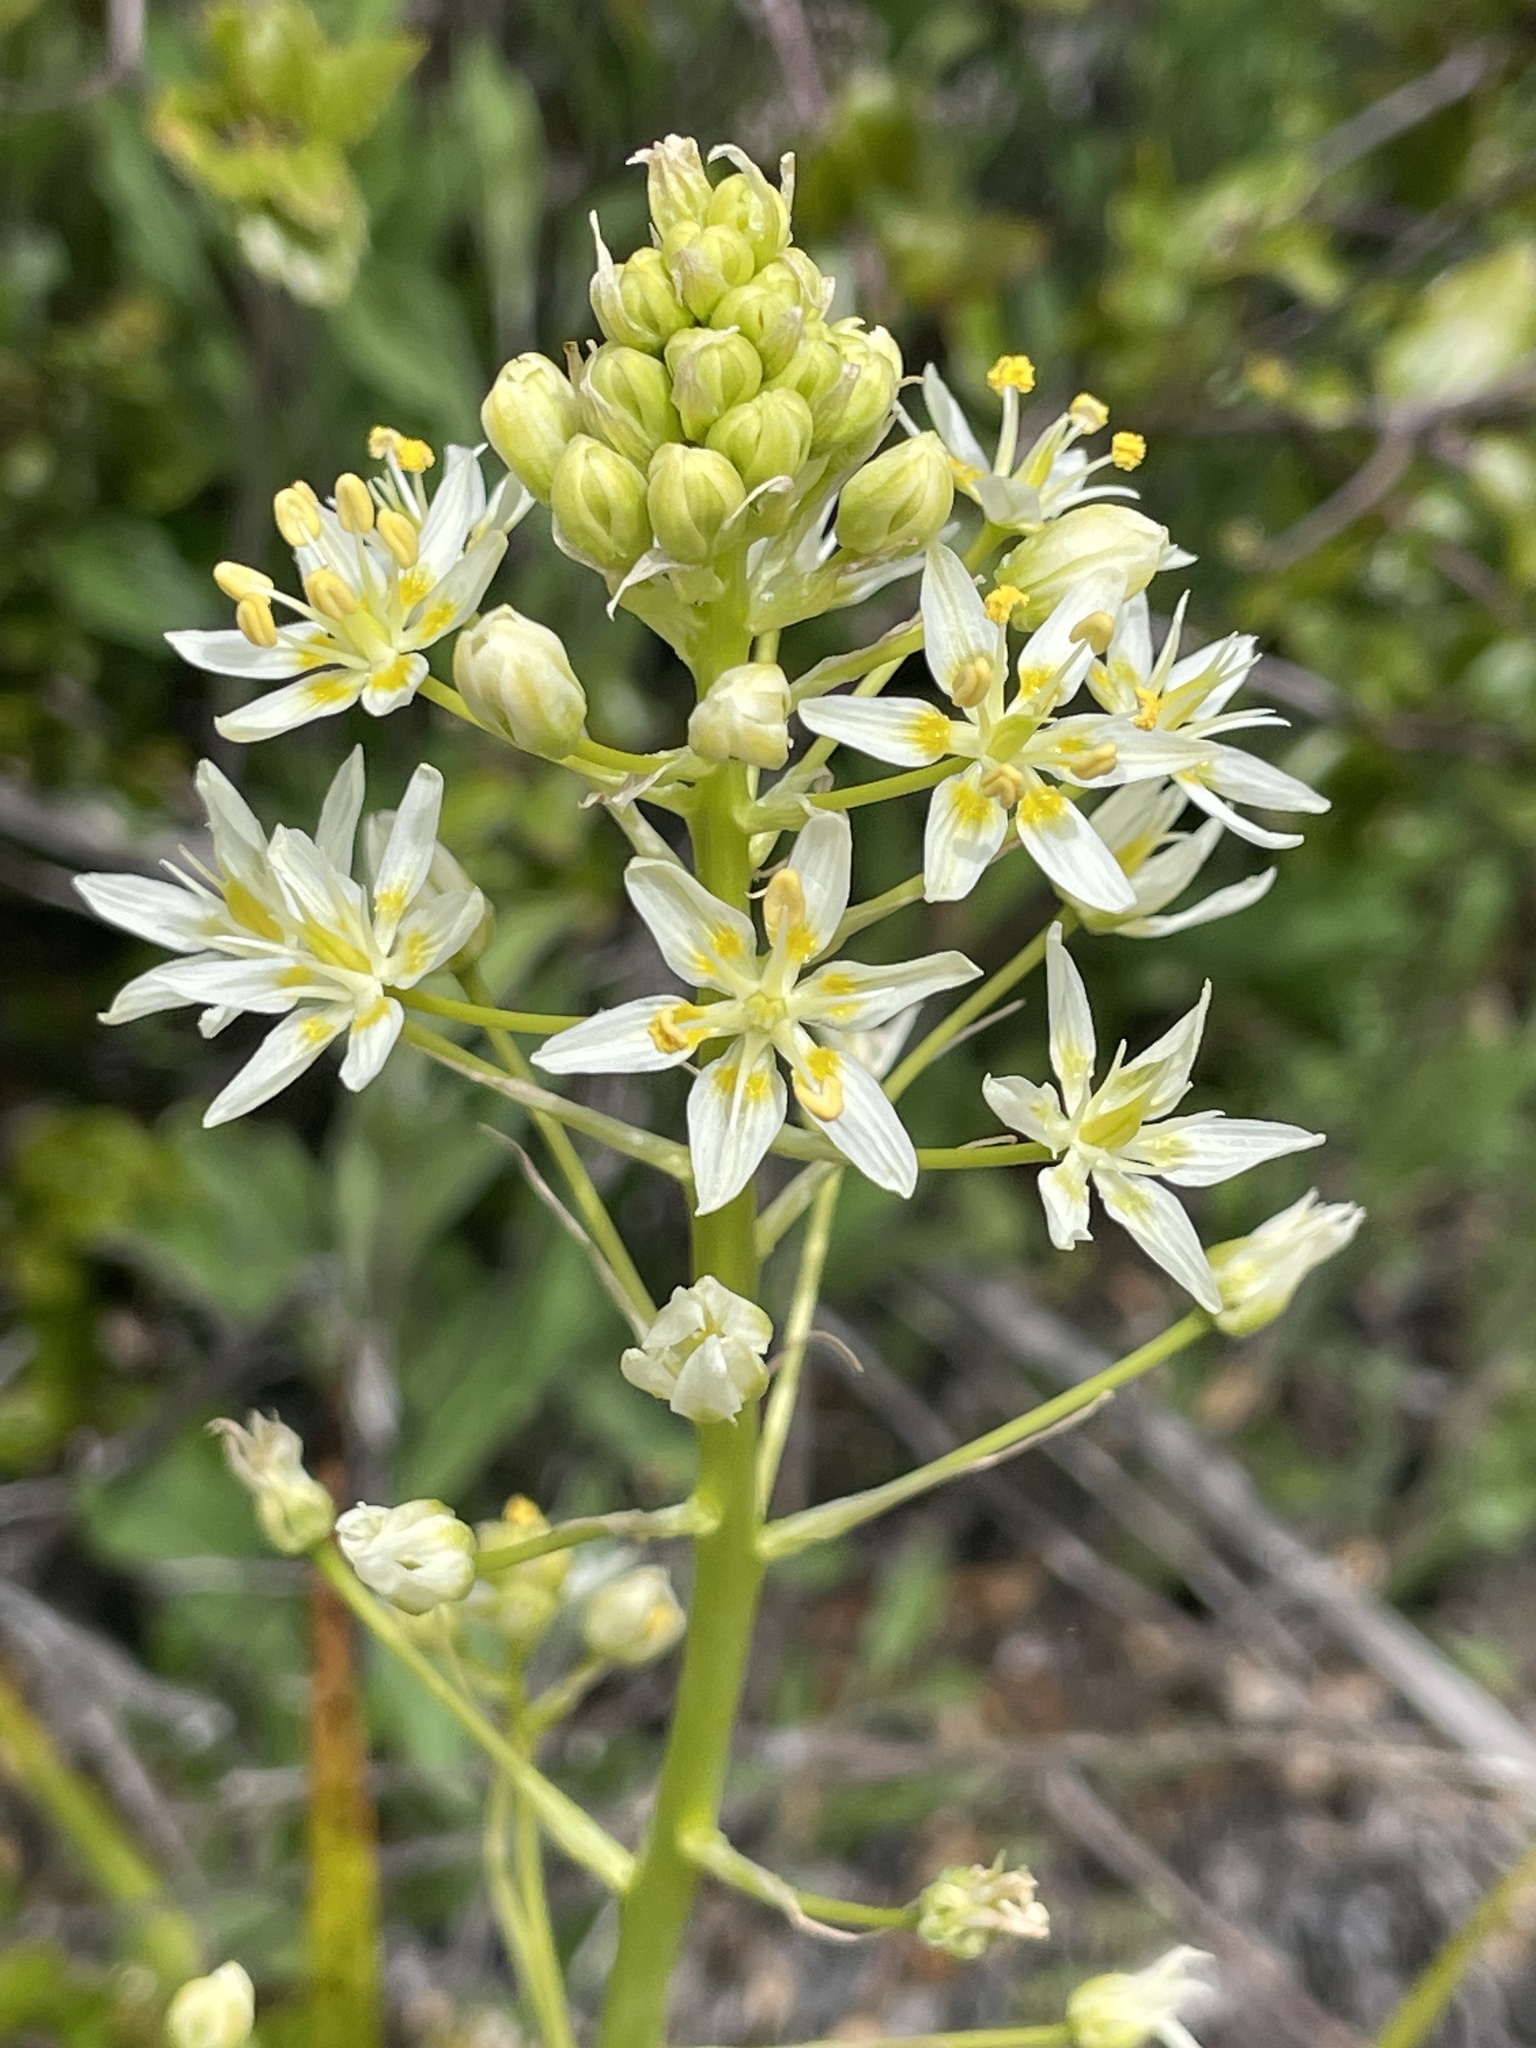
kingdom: Plantae
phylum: Tracheophyta
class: Liliopsida
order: Liliales
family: Melanthiaceae
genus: Toxicoscordion
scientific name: Toxicoscordion fremontii
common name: Fremont's death camas
